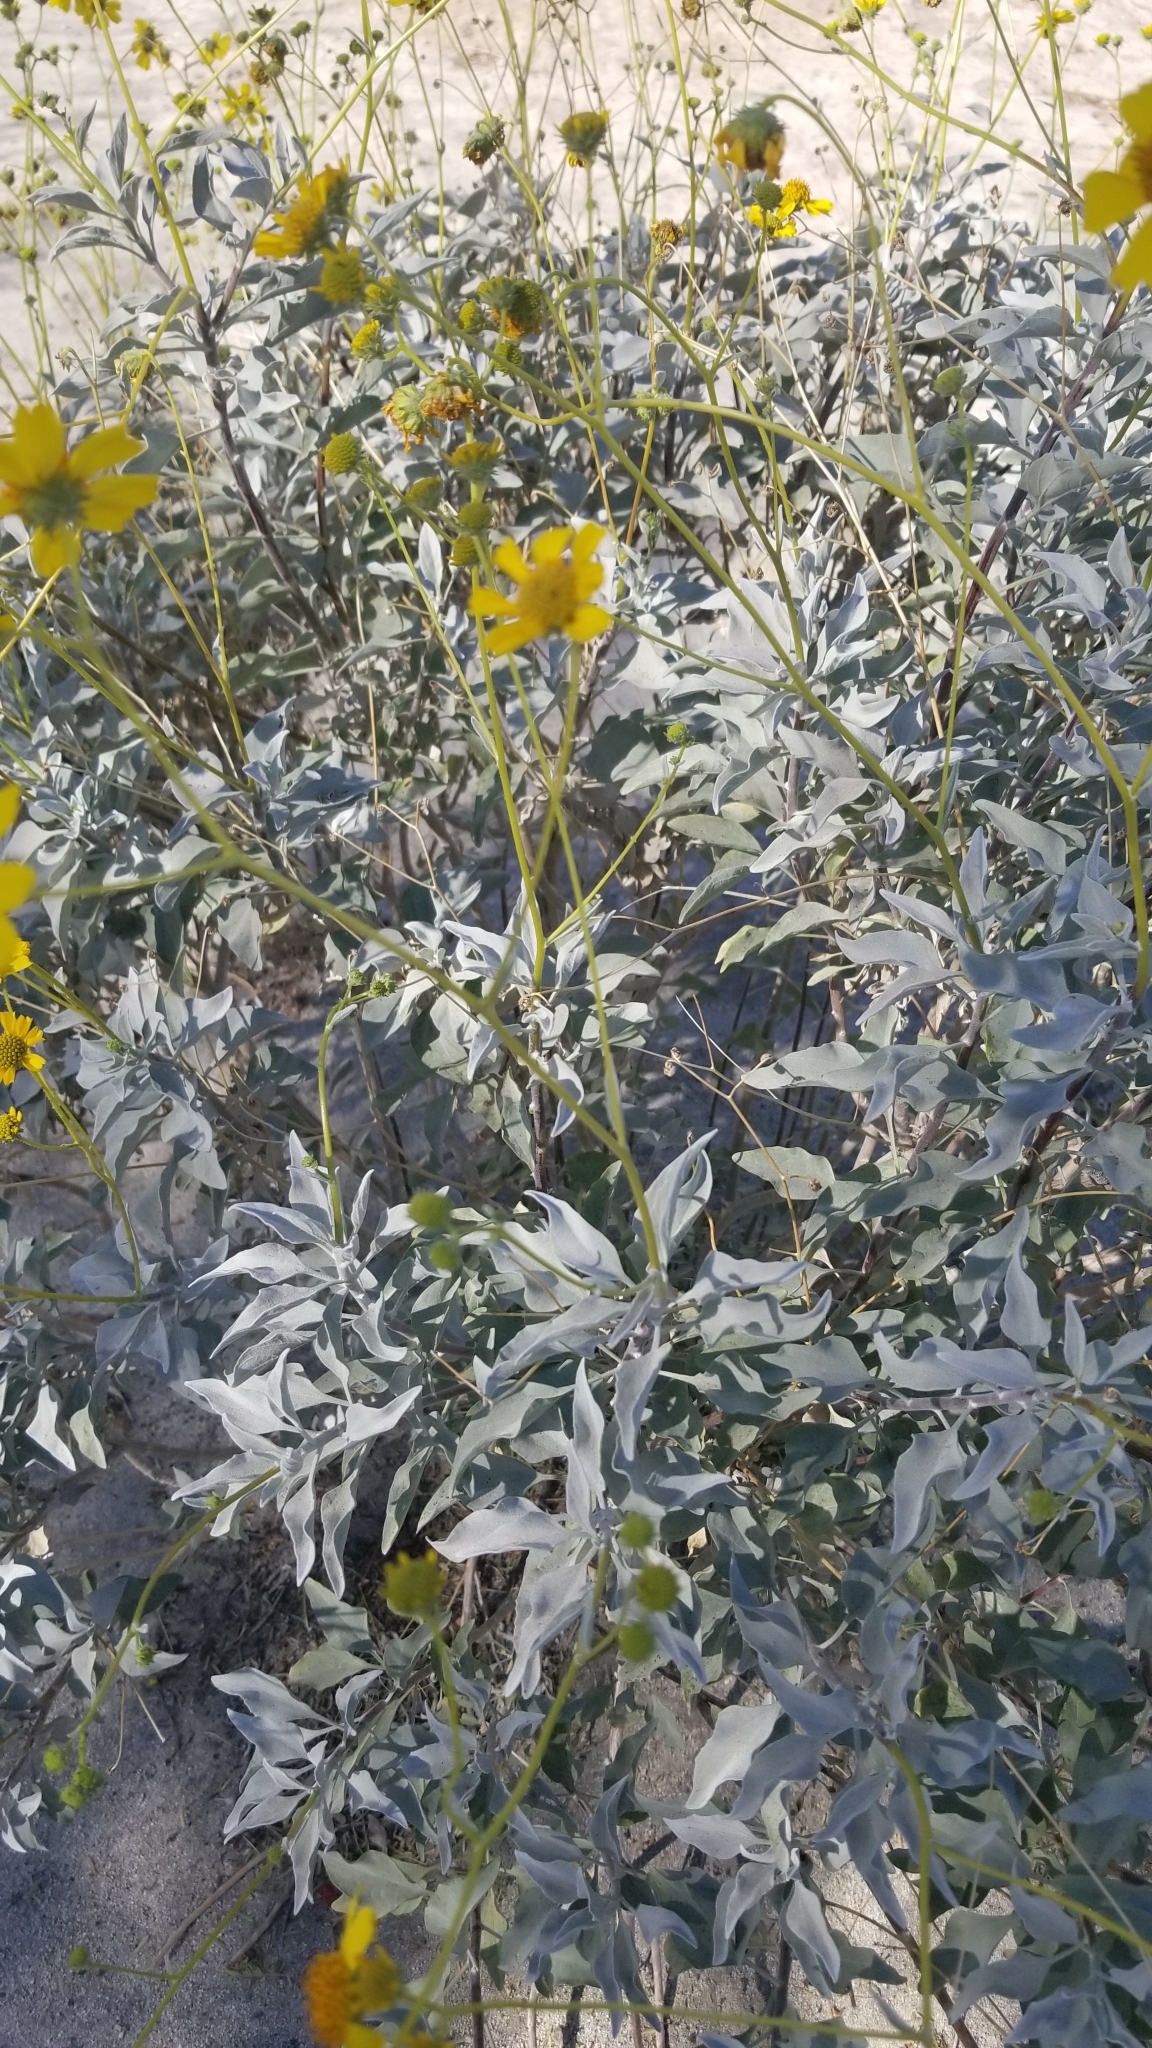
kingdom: Plantae
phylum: Tracheophyta
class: Magnoliopsida
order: Asterales
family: Asteraceae
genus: Encelia
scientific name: Encelia farinosa
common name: Brittlebush
